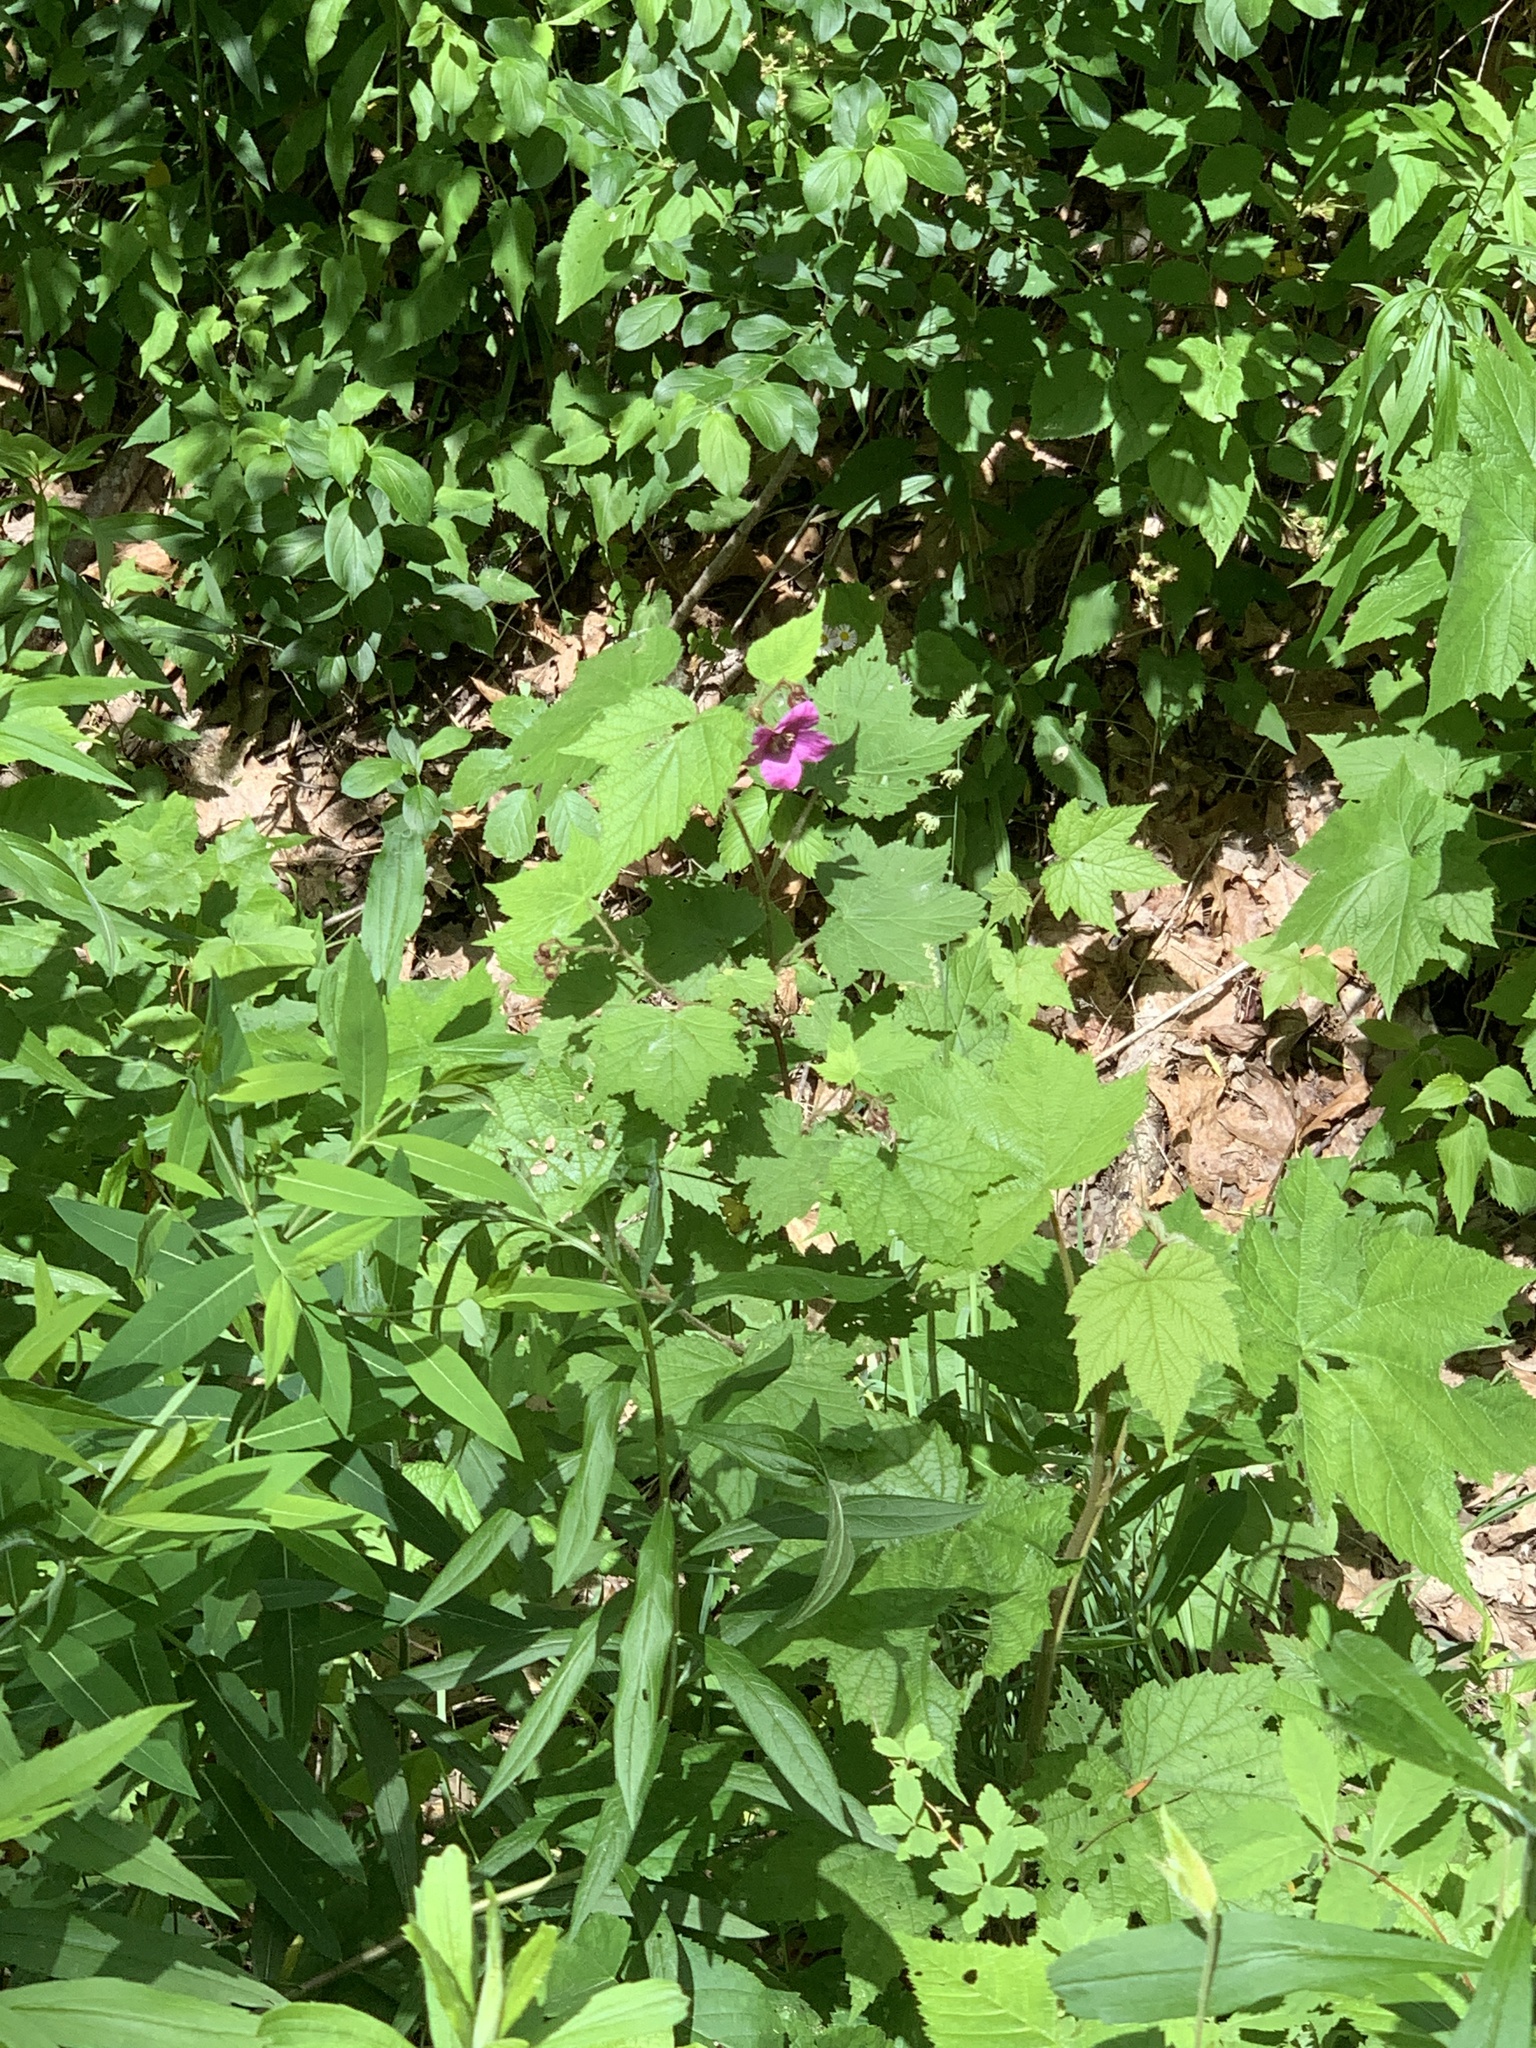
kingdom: Plantae
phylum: Tracheophyta
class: Magnoliopsida
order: Rosales
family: Rosaceae
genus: Rubus
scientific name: Rubus odoratus
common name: Purple-flowered raspberry
